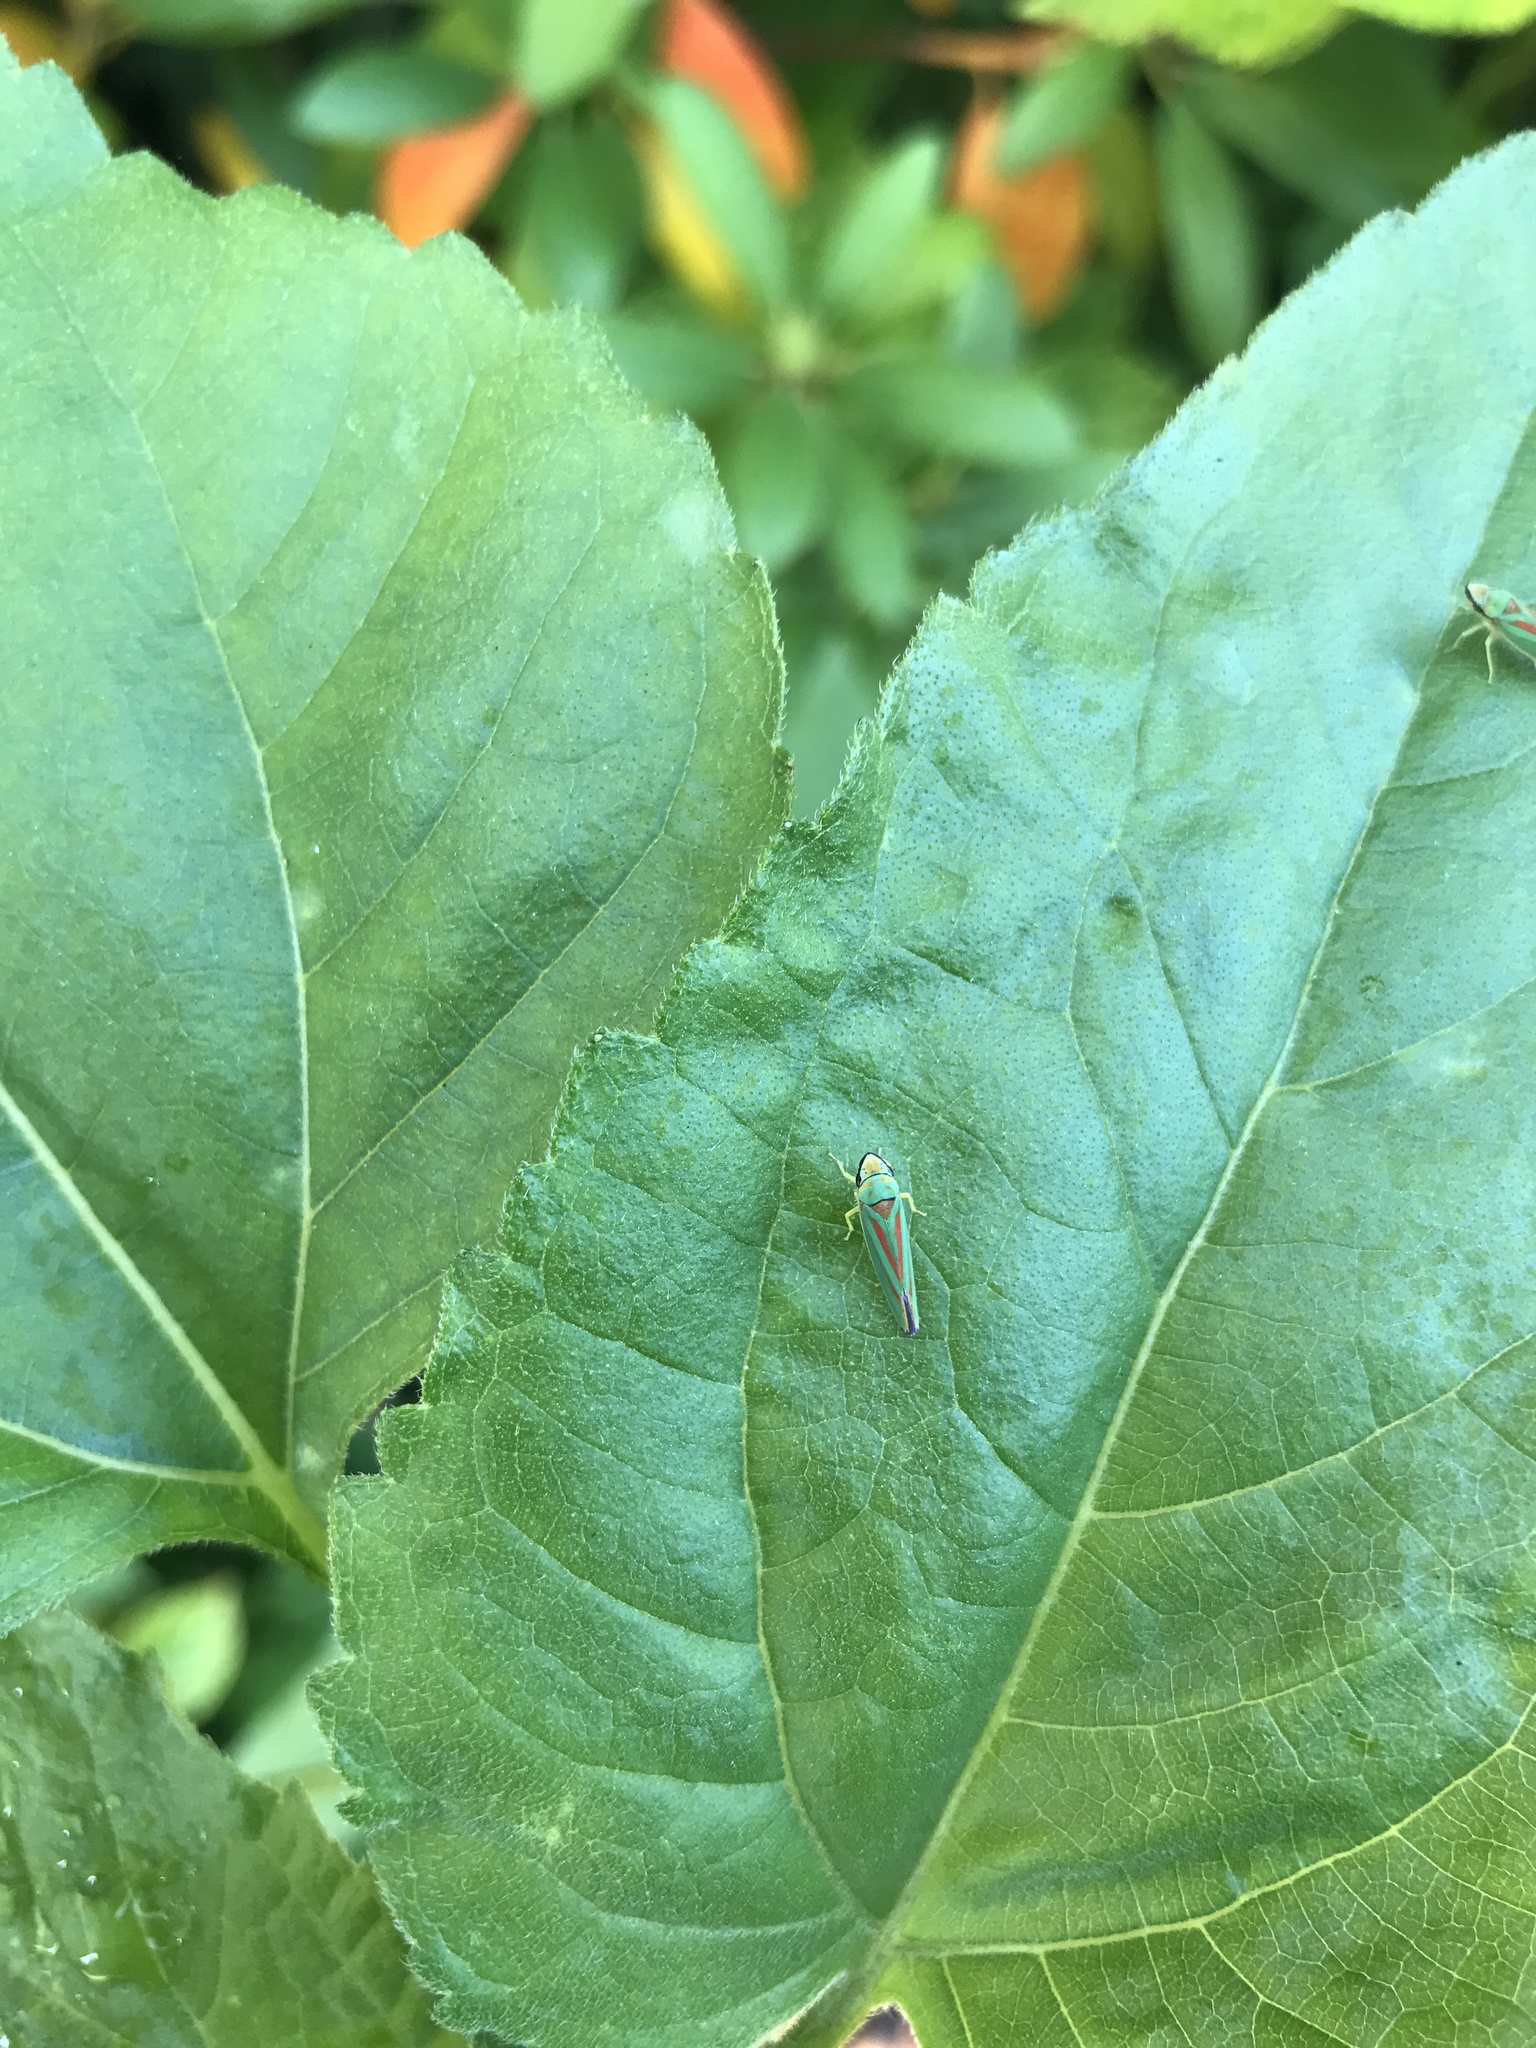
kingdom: Animalia
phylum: Arthropoda
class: Insecta
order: Hemiptera
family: Cicadellidae
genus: Graphocephala
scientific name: Graphocephala fennahi
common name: Rhododendron leafhopper
